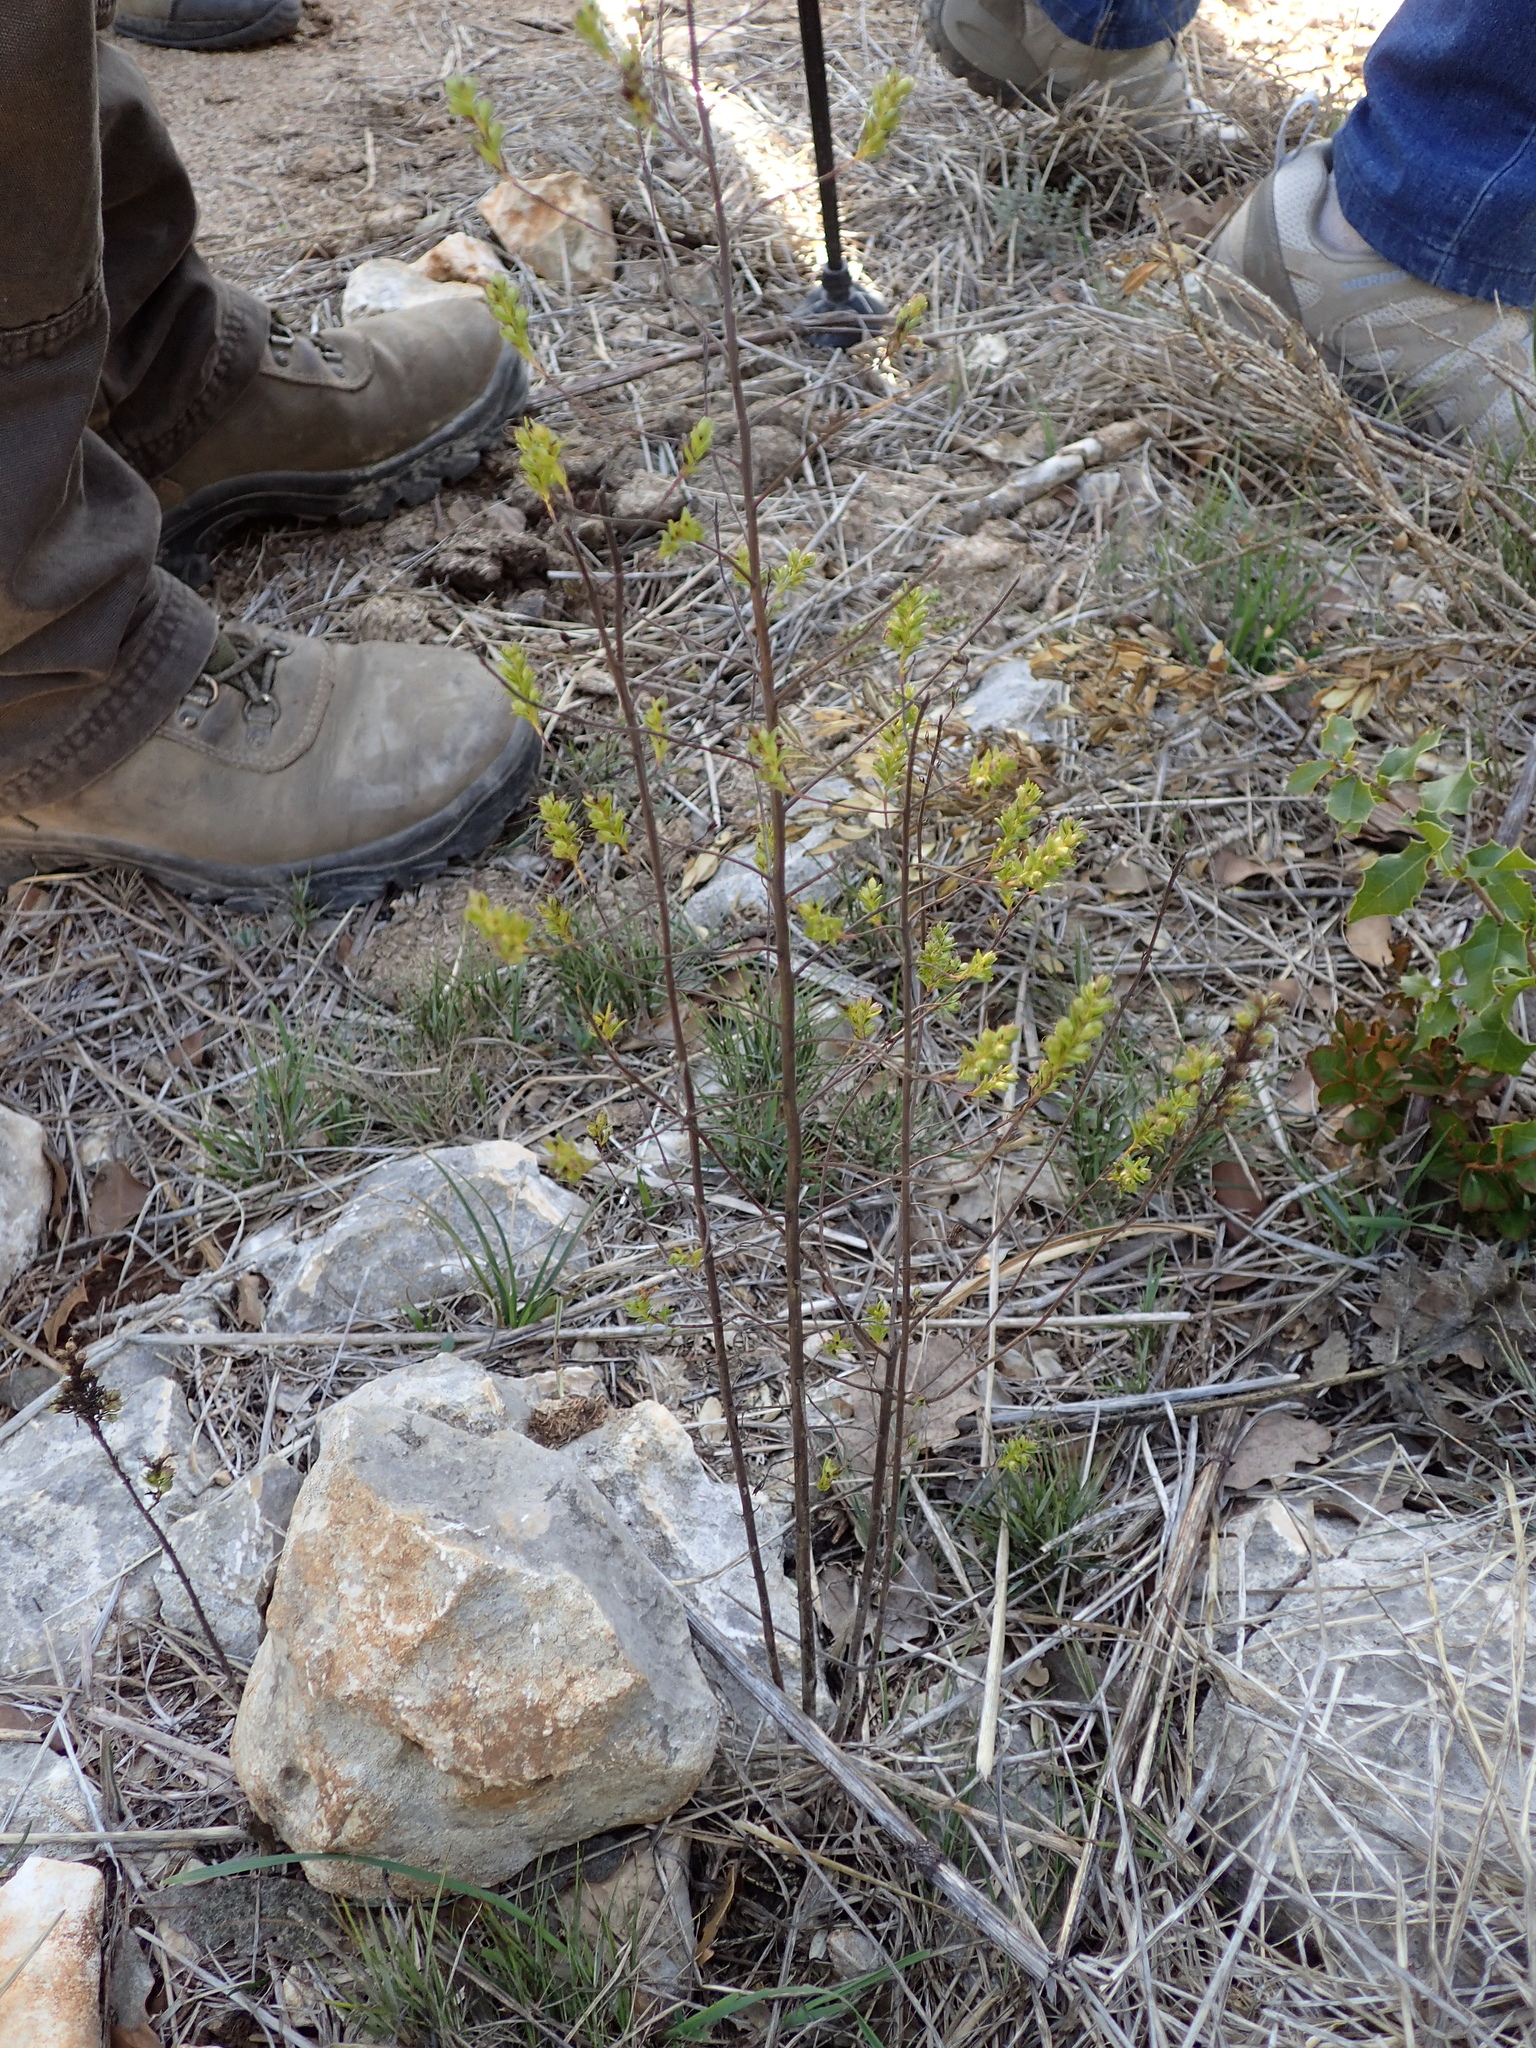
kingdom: Plantae
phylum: Tracheophyta
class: Magnoliopsida
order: Lamiales
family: Orobanchaceae
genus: Odontites
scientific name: Odontites luteus
